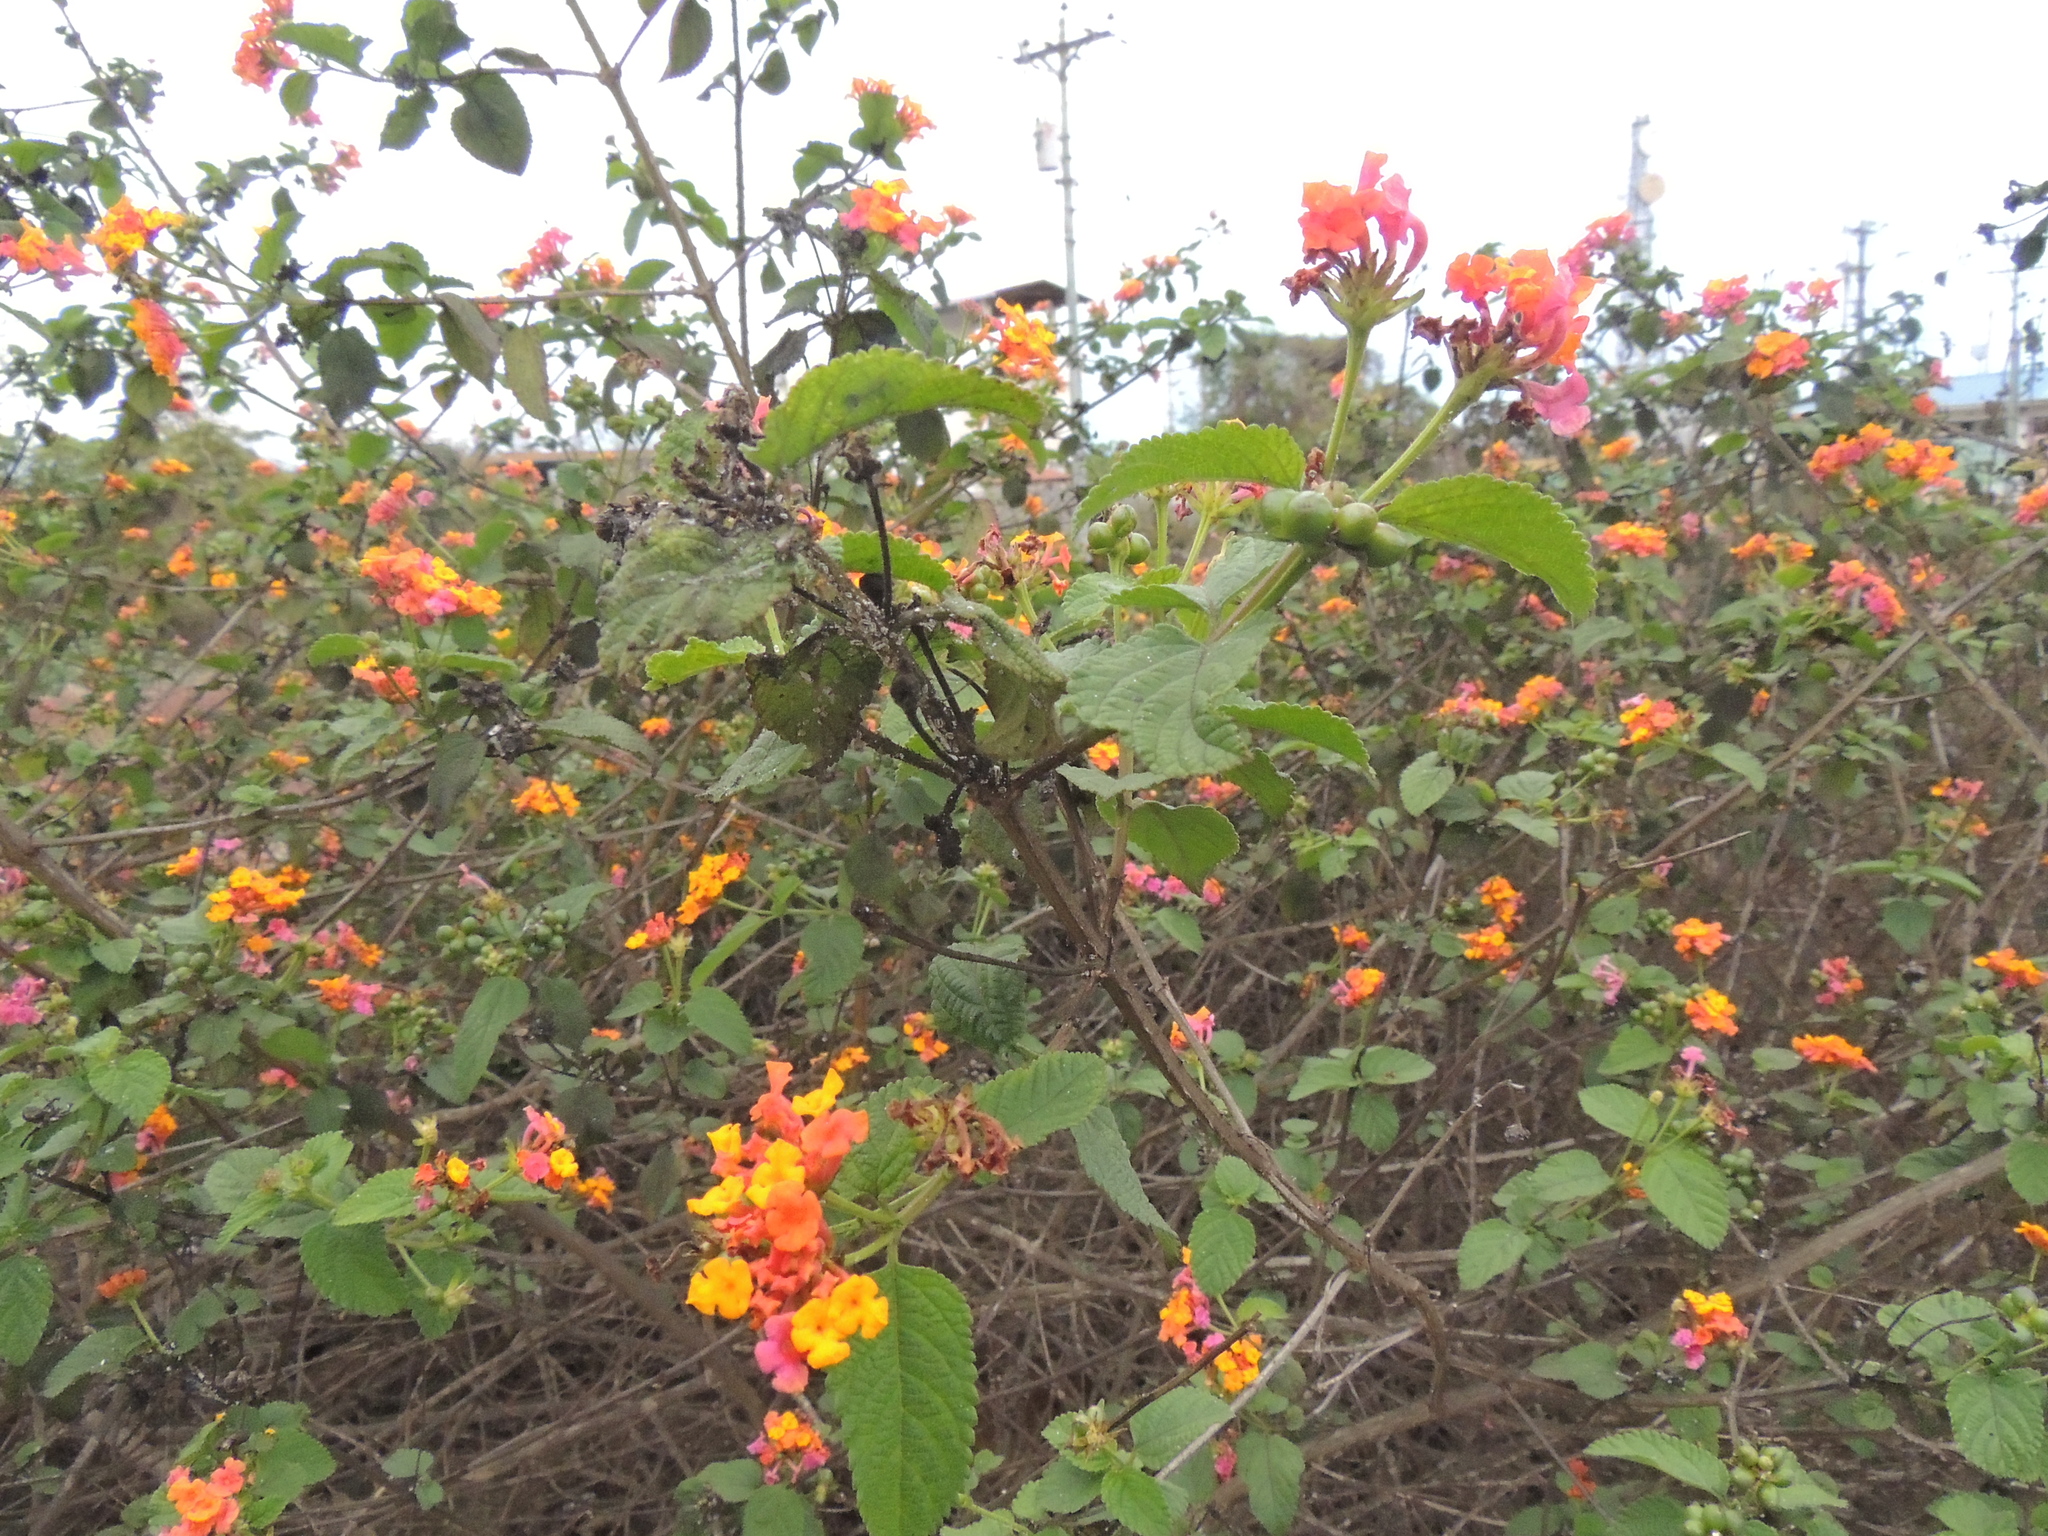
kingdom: Plantae
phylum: Tracheophyta
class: Magnoliopsida
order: Lamiales
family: Verbenaceae
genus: Lantana
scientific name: Lantana camara
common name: Lantana
